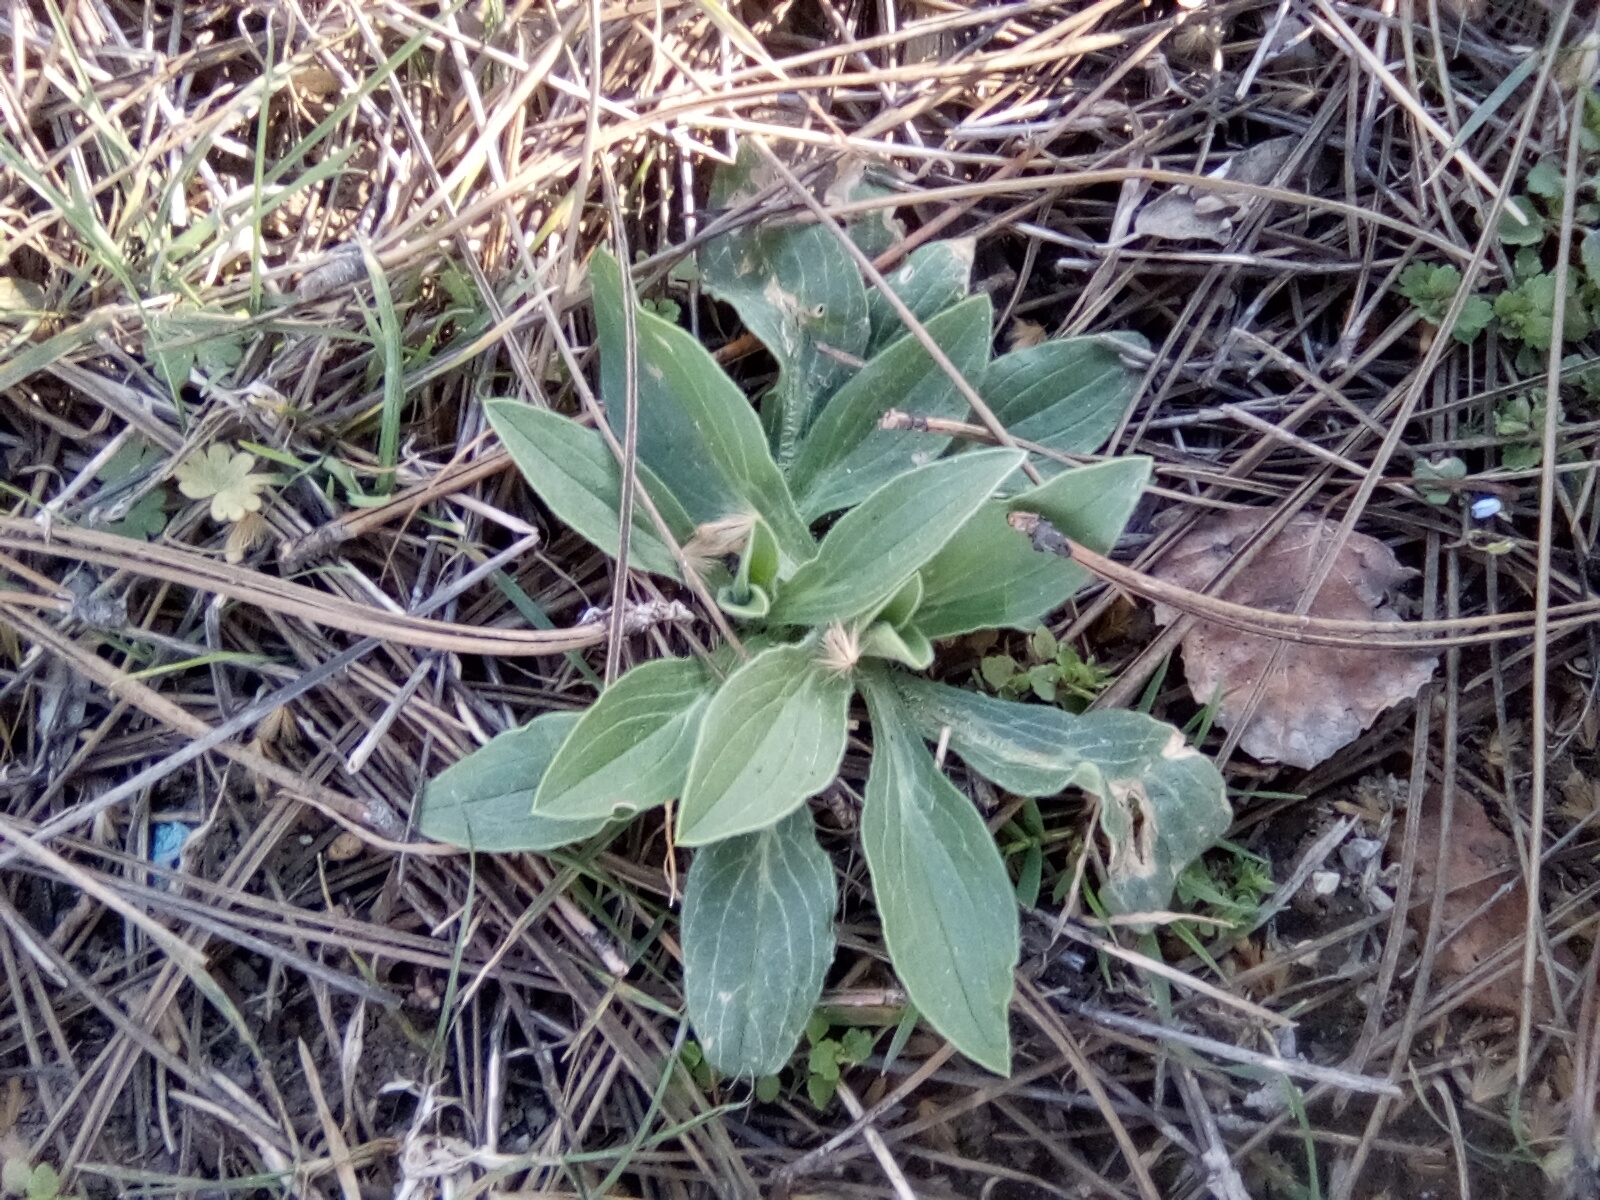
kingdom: Plantae
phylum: Tracheophyta
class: Magnoliopsida
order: Caryophyllales
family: Caryophyllaceae
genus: Silene
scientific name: Silene latifolia
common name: White campion
